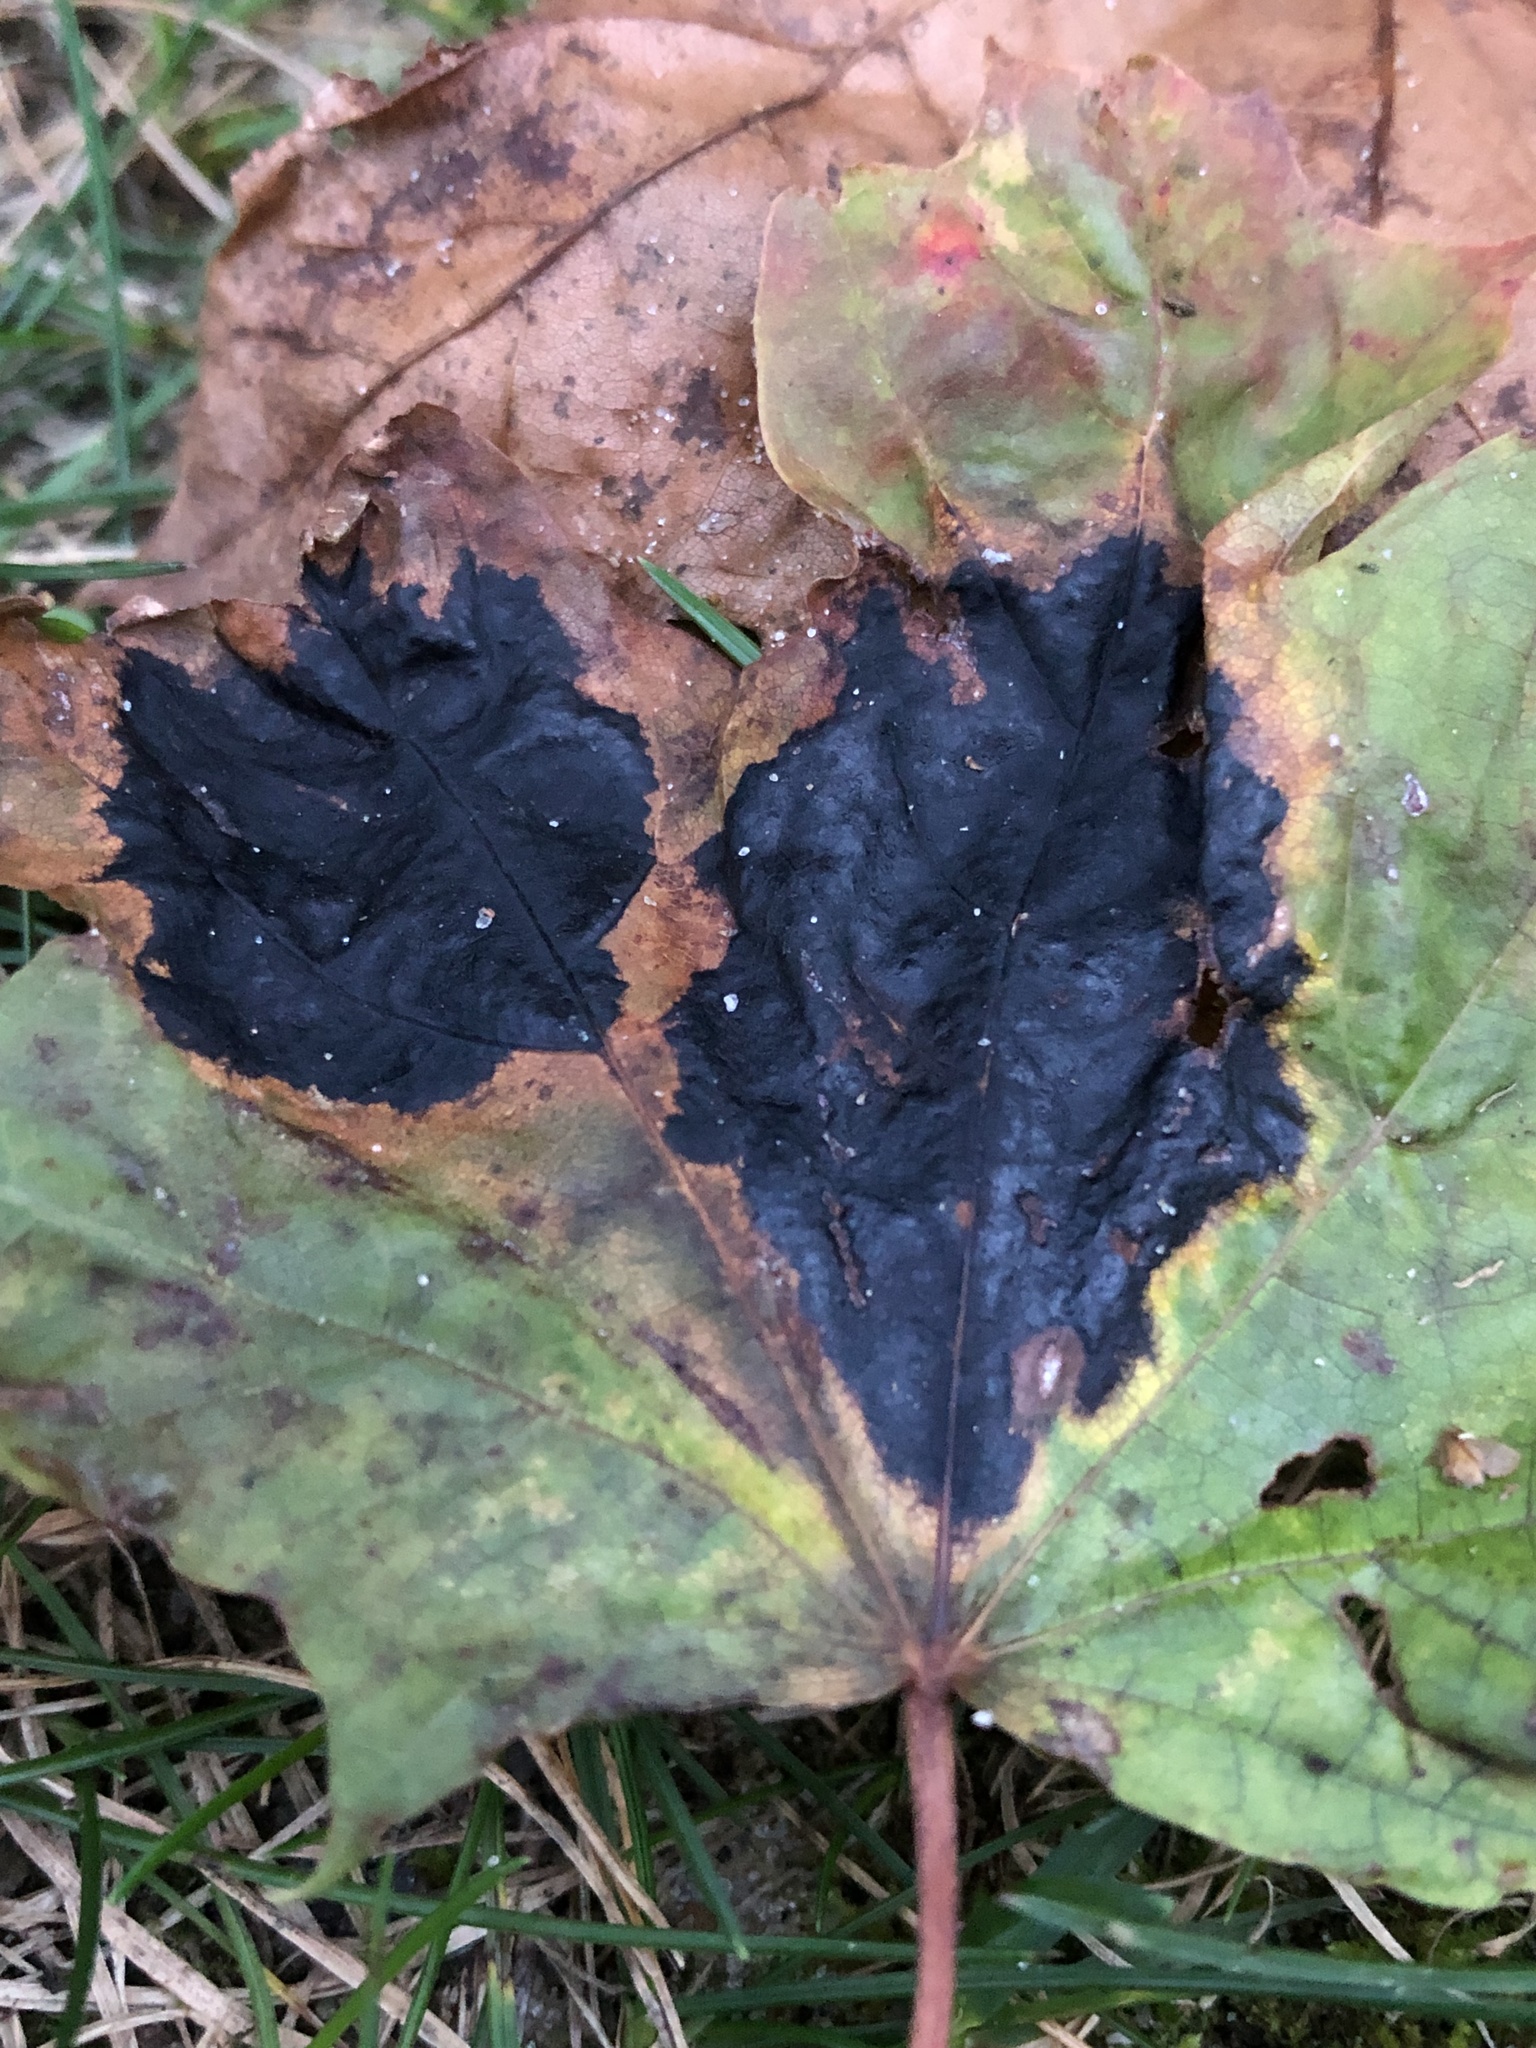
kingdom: Fungi
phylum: Ascomycota
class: Leotiomycetes
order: Rhytismatales
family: Rhytismataceae
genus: Rhytisma
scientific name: Rhytisma acerinum
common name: European tar spot
